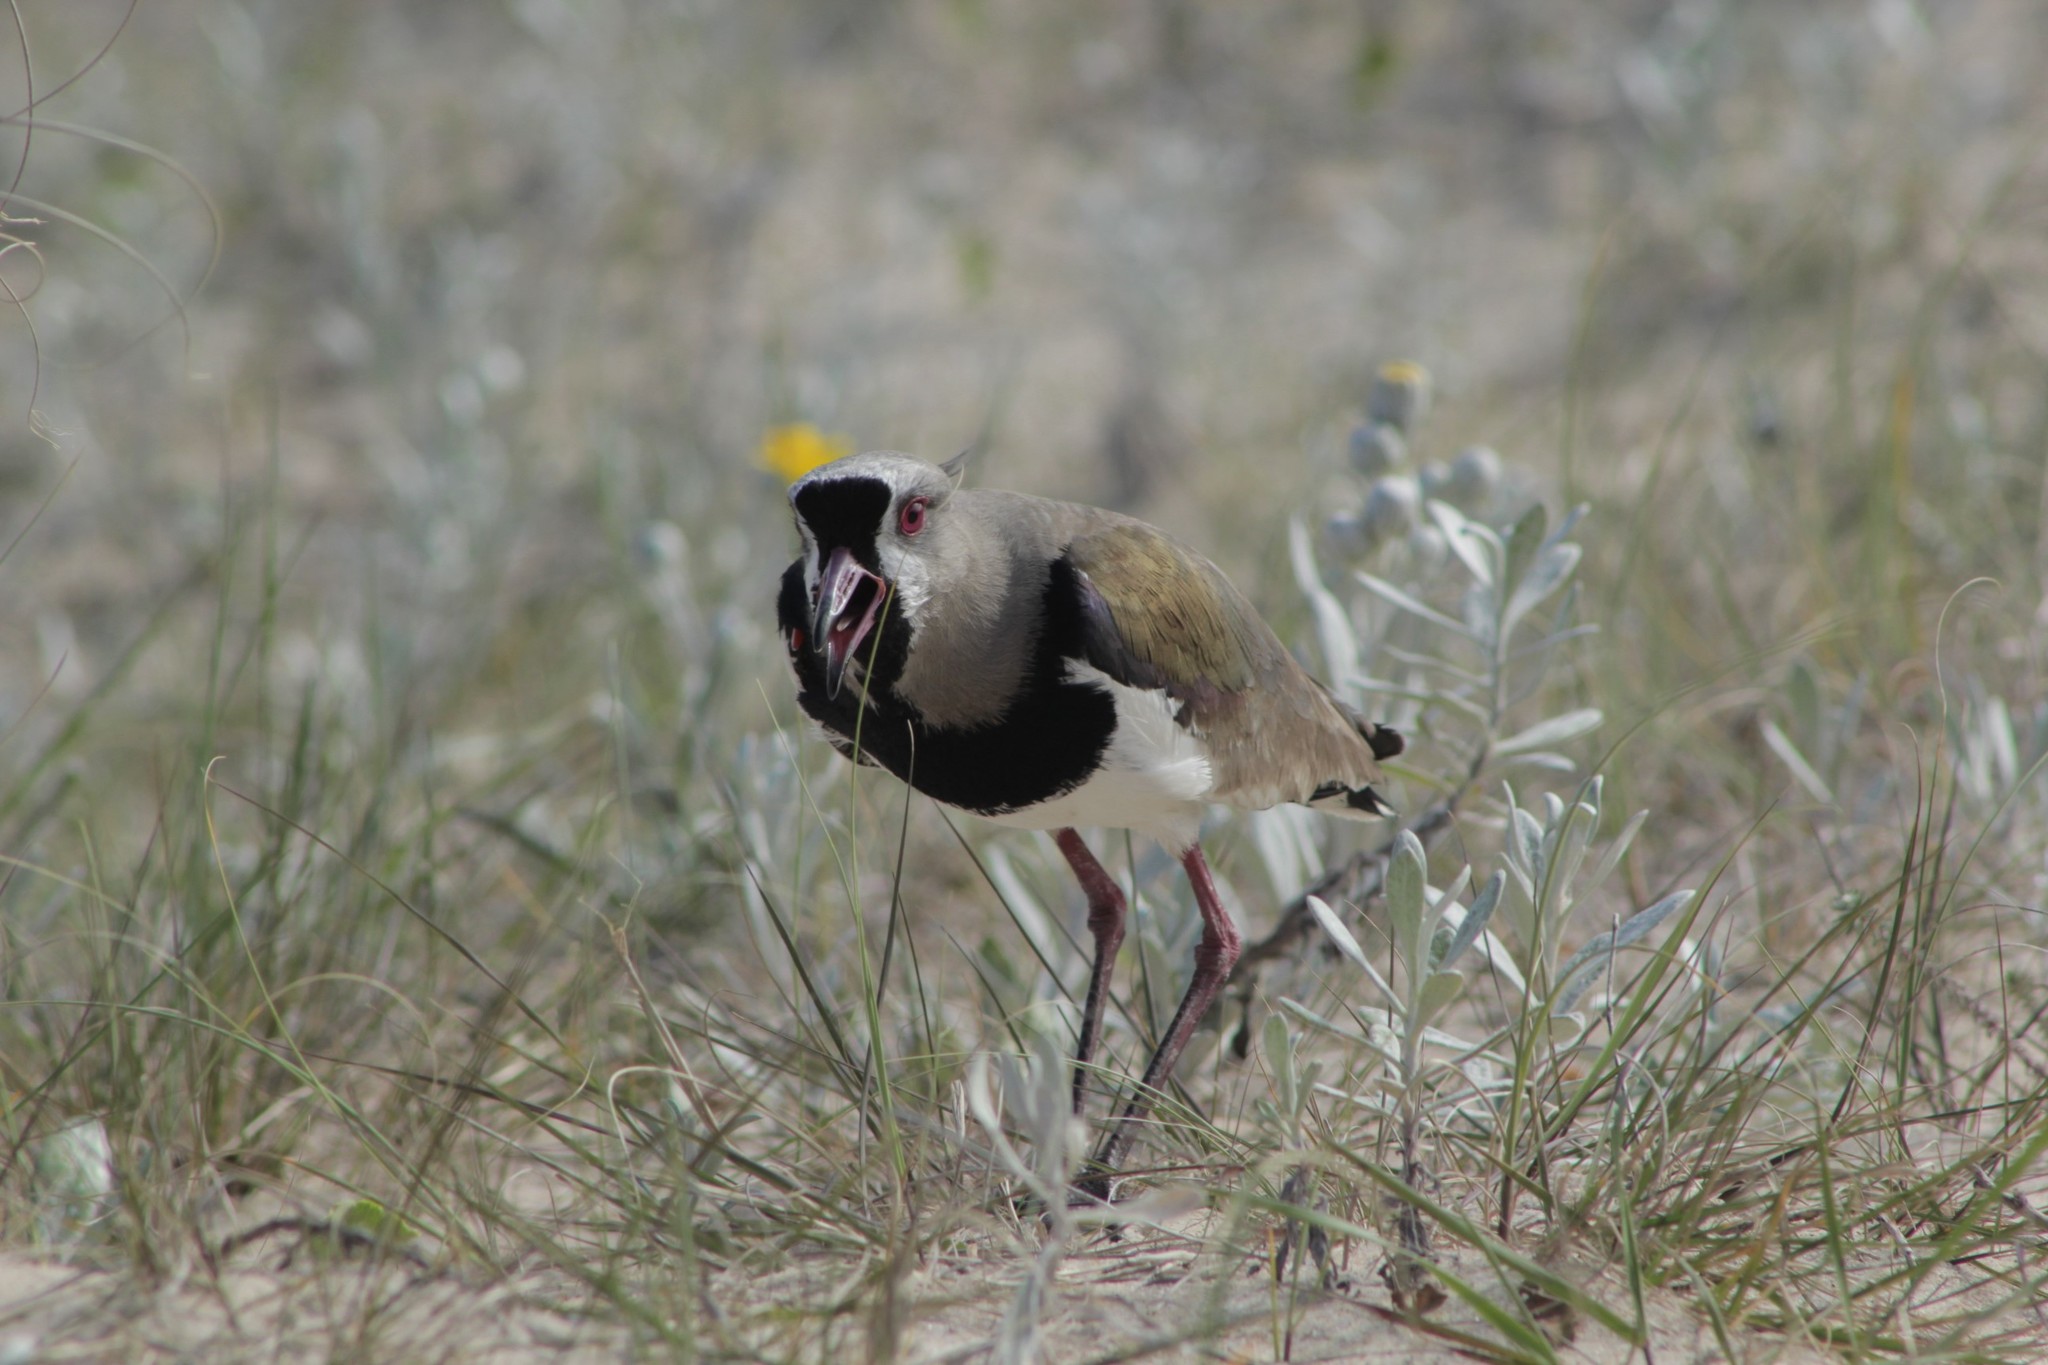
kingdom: Animalia
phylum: Chordata
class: Aves
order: Charadriiformes
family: Charadriidae
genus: Vanellus
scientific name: Vanellus chilensis
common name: Southern lapwing
